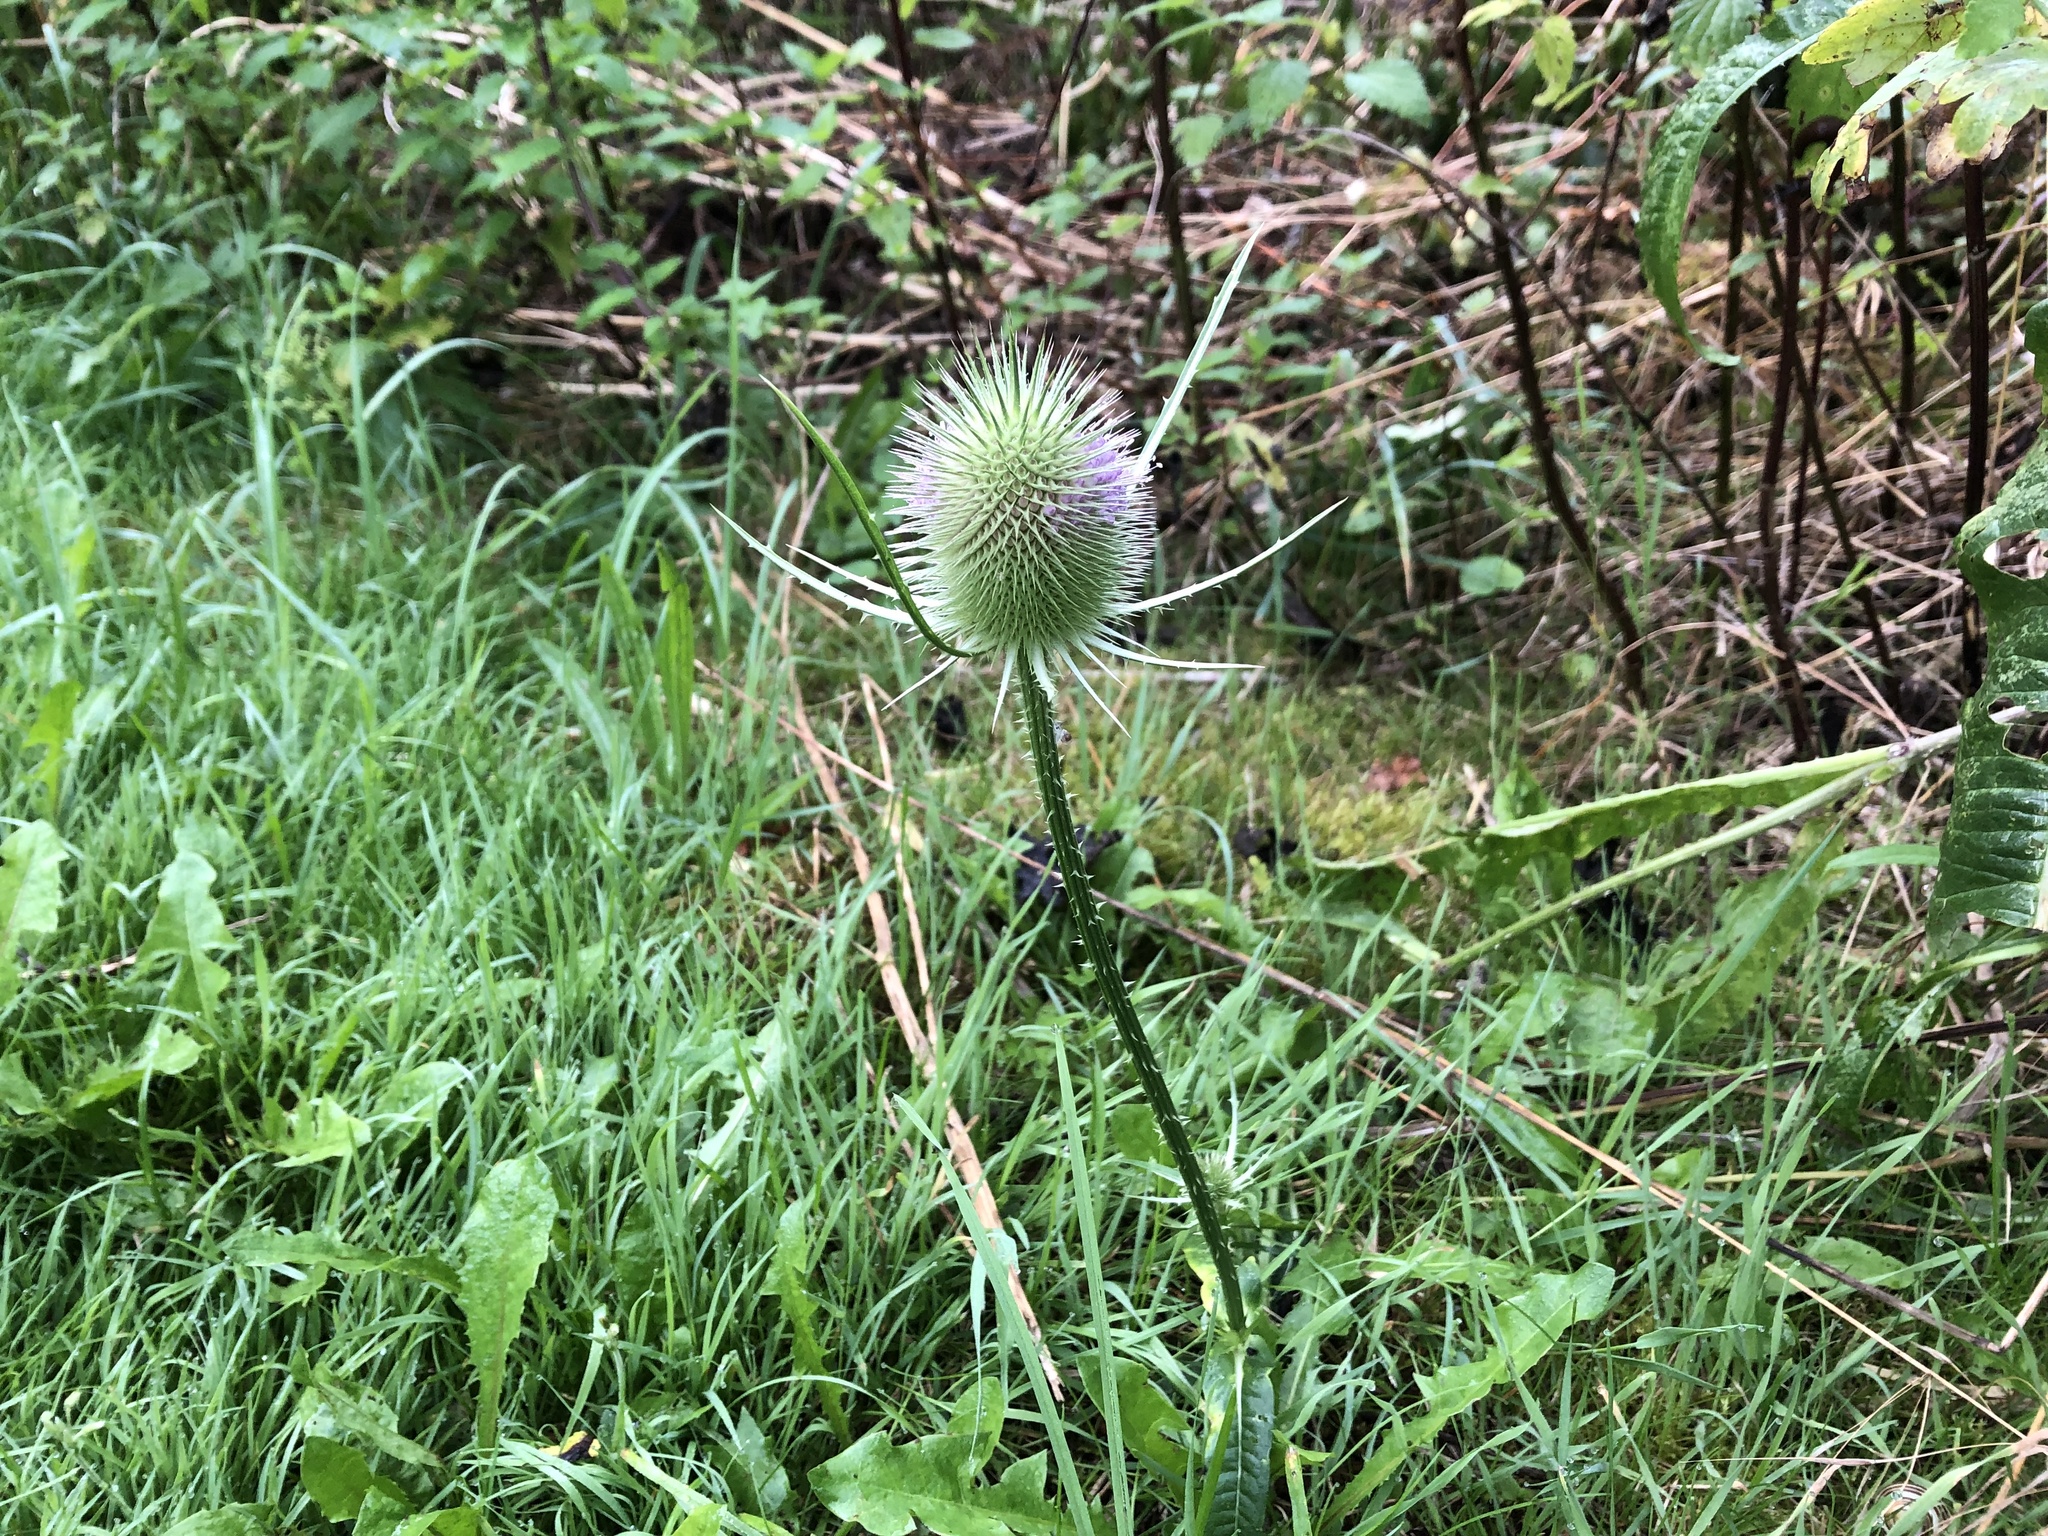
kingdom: Plantae
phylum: Tracheophyta
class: Magnoliopsida
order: Dipsacales
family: Caprifoliaceae
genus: Dipsacus
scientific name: Dipsacus fullonum
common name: Teasel
